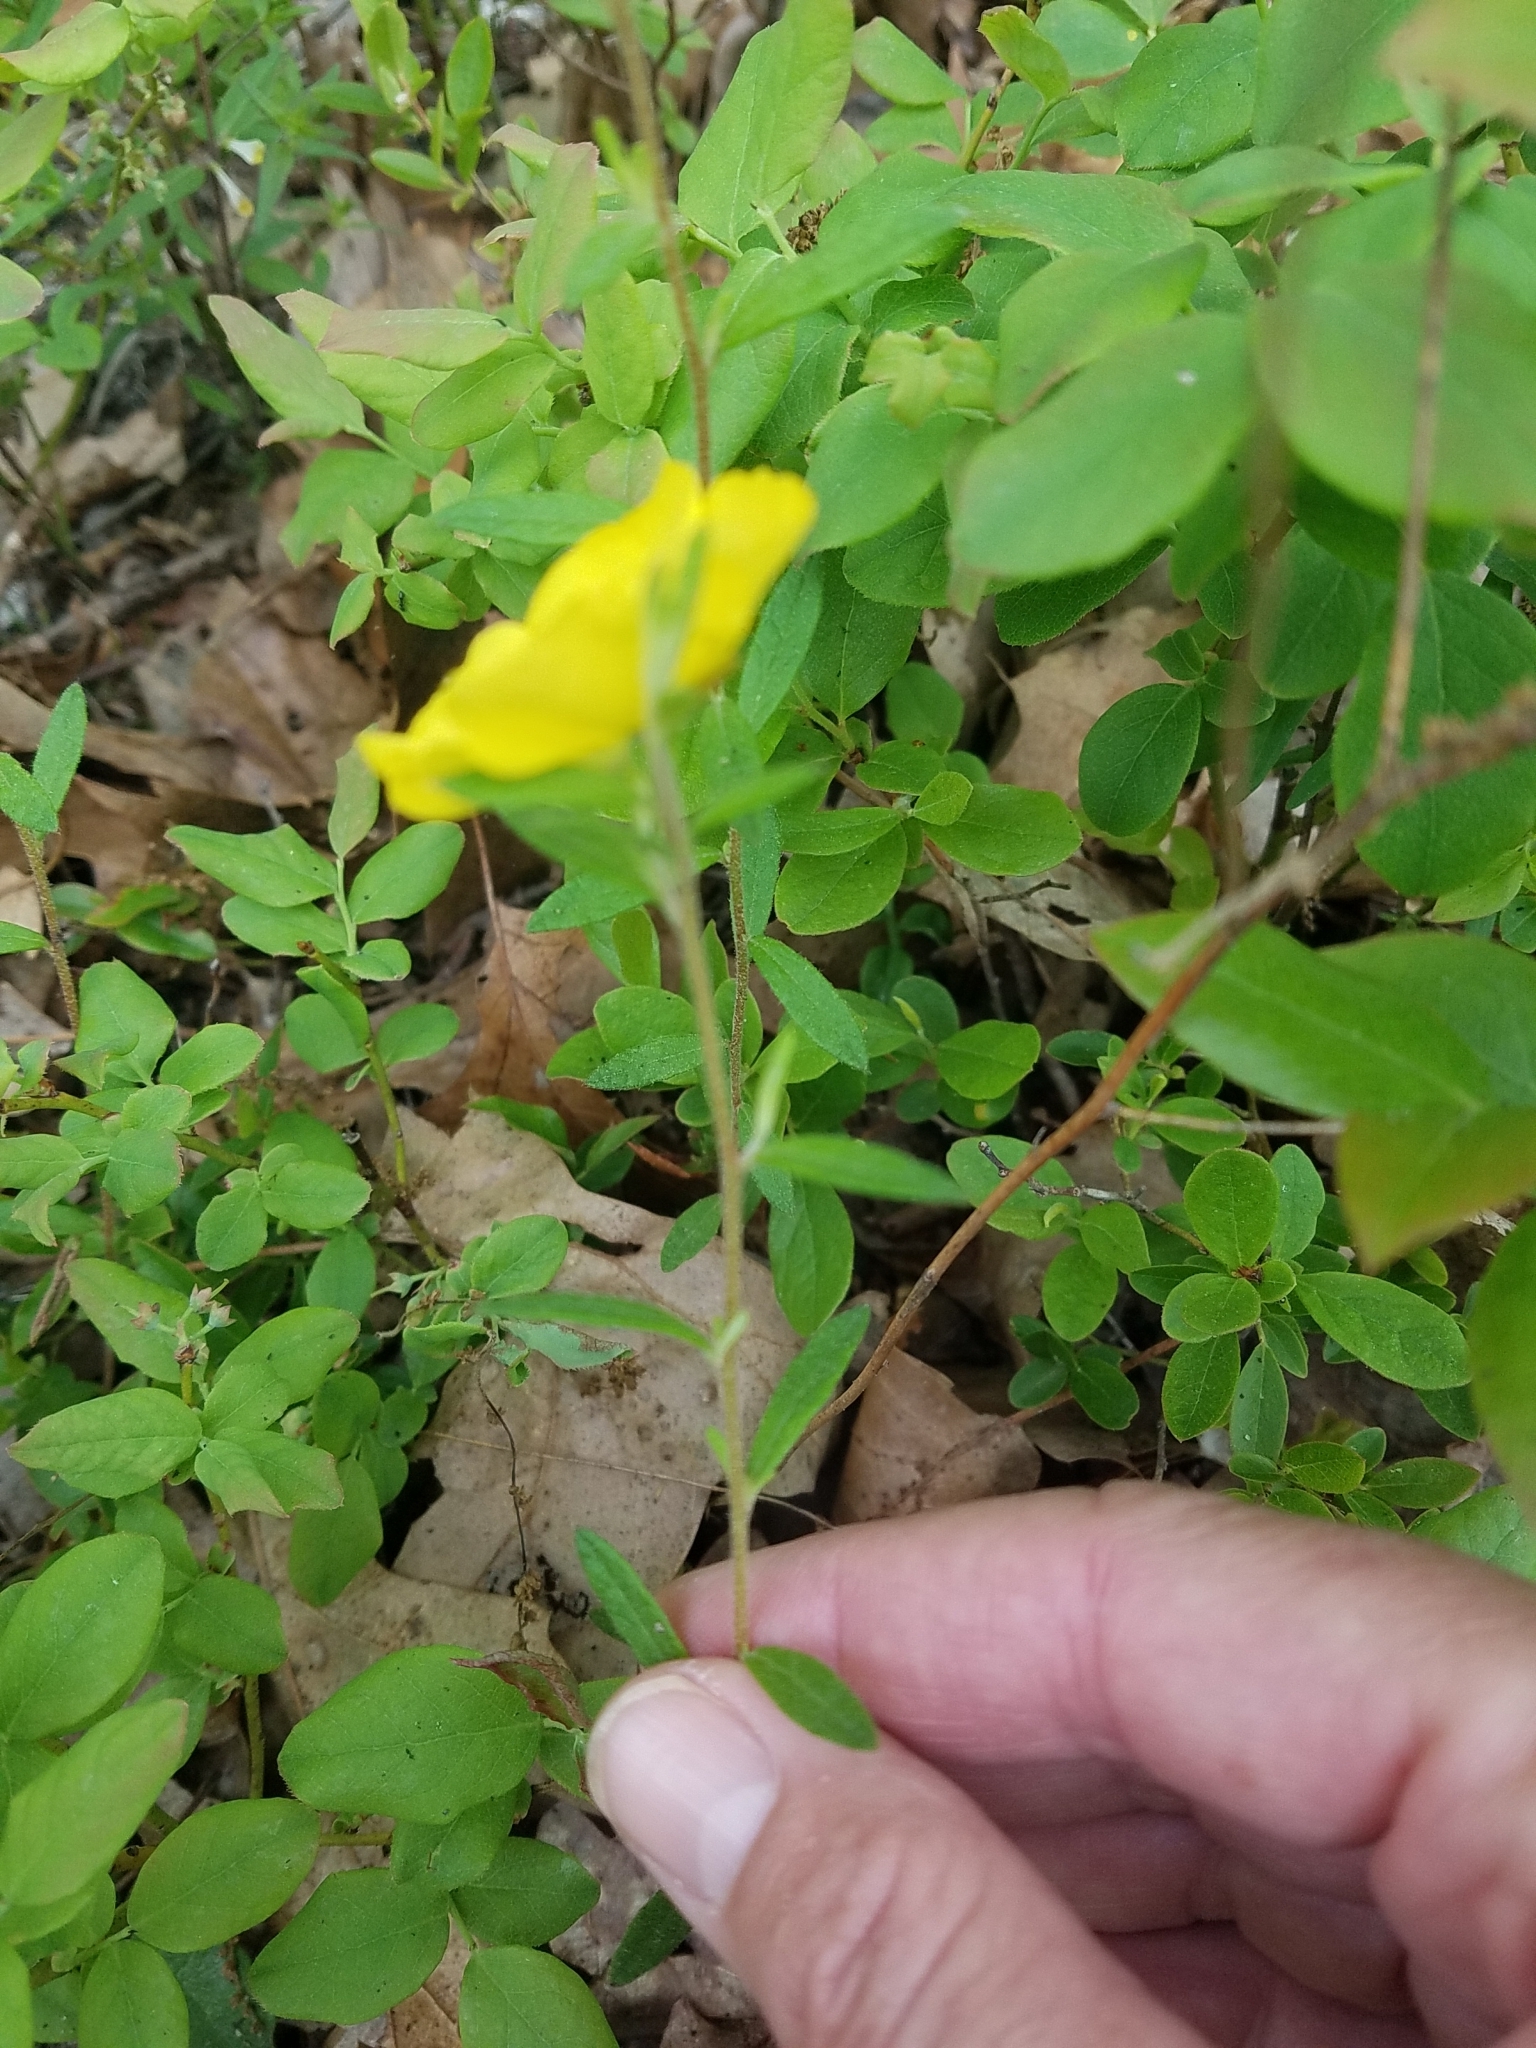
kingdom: Plantae
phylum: Tracheophyta
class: Magnoliopsida
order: Malvales
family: Cistaceae
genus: Crocanthemum
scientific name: Crocanthemum canadense
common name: Canada frostweed
